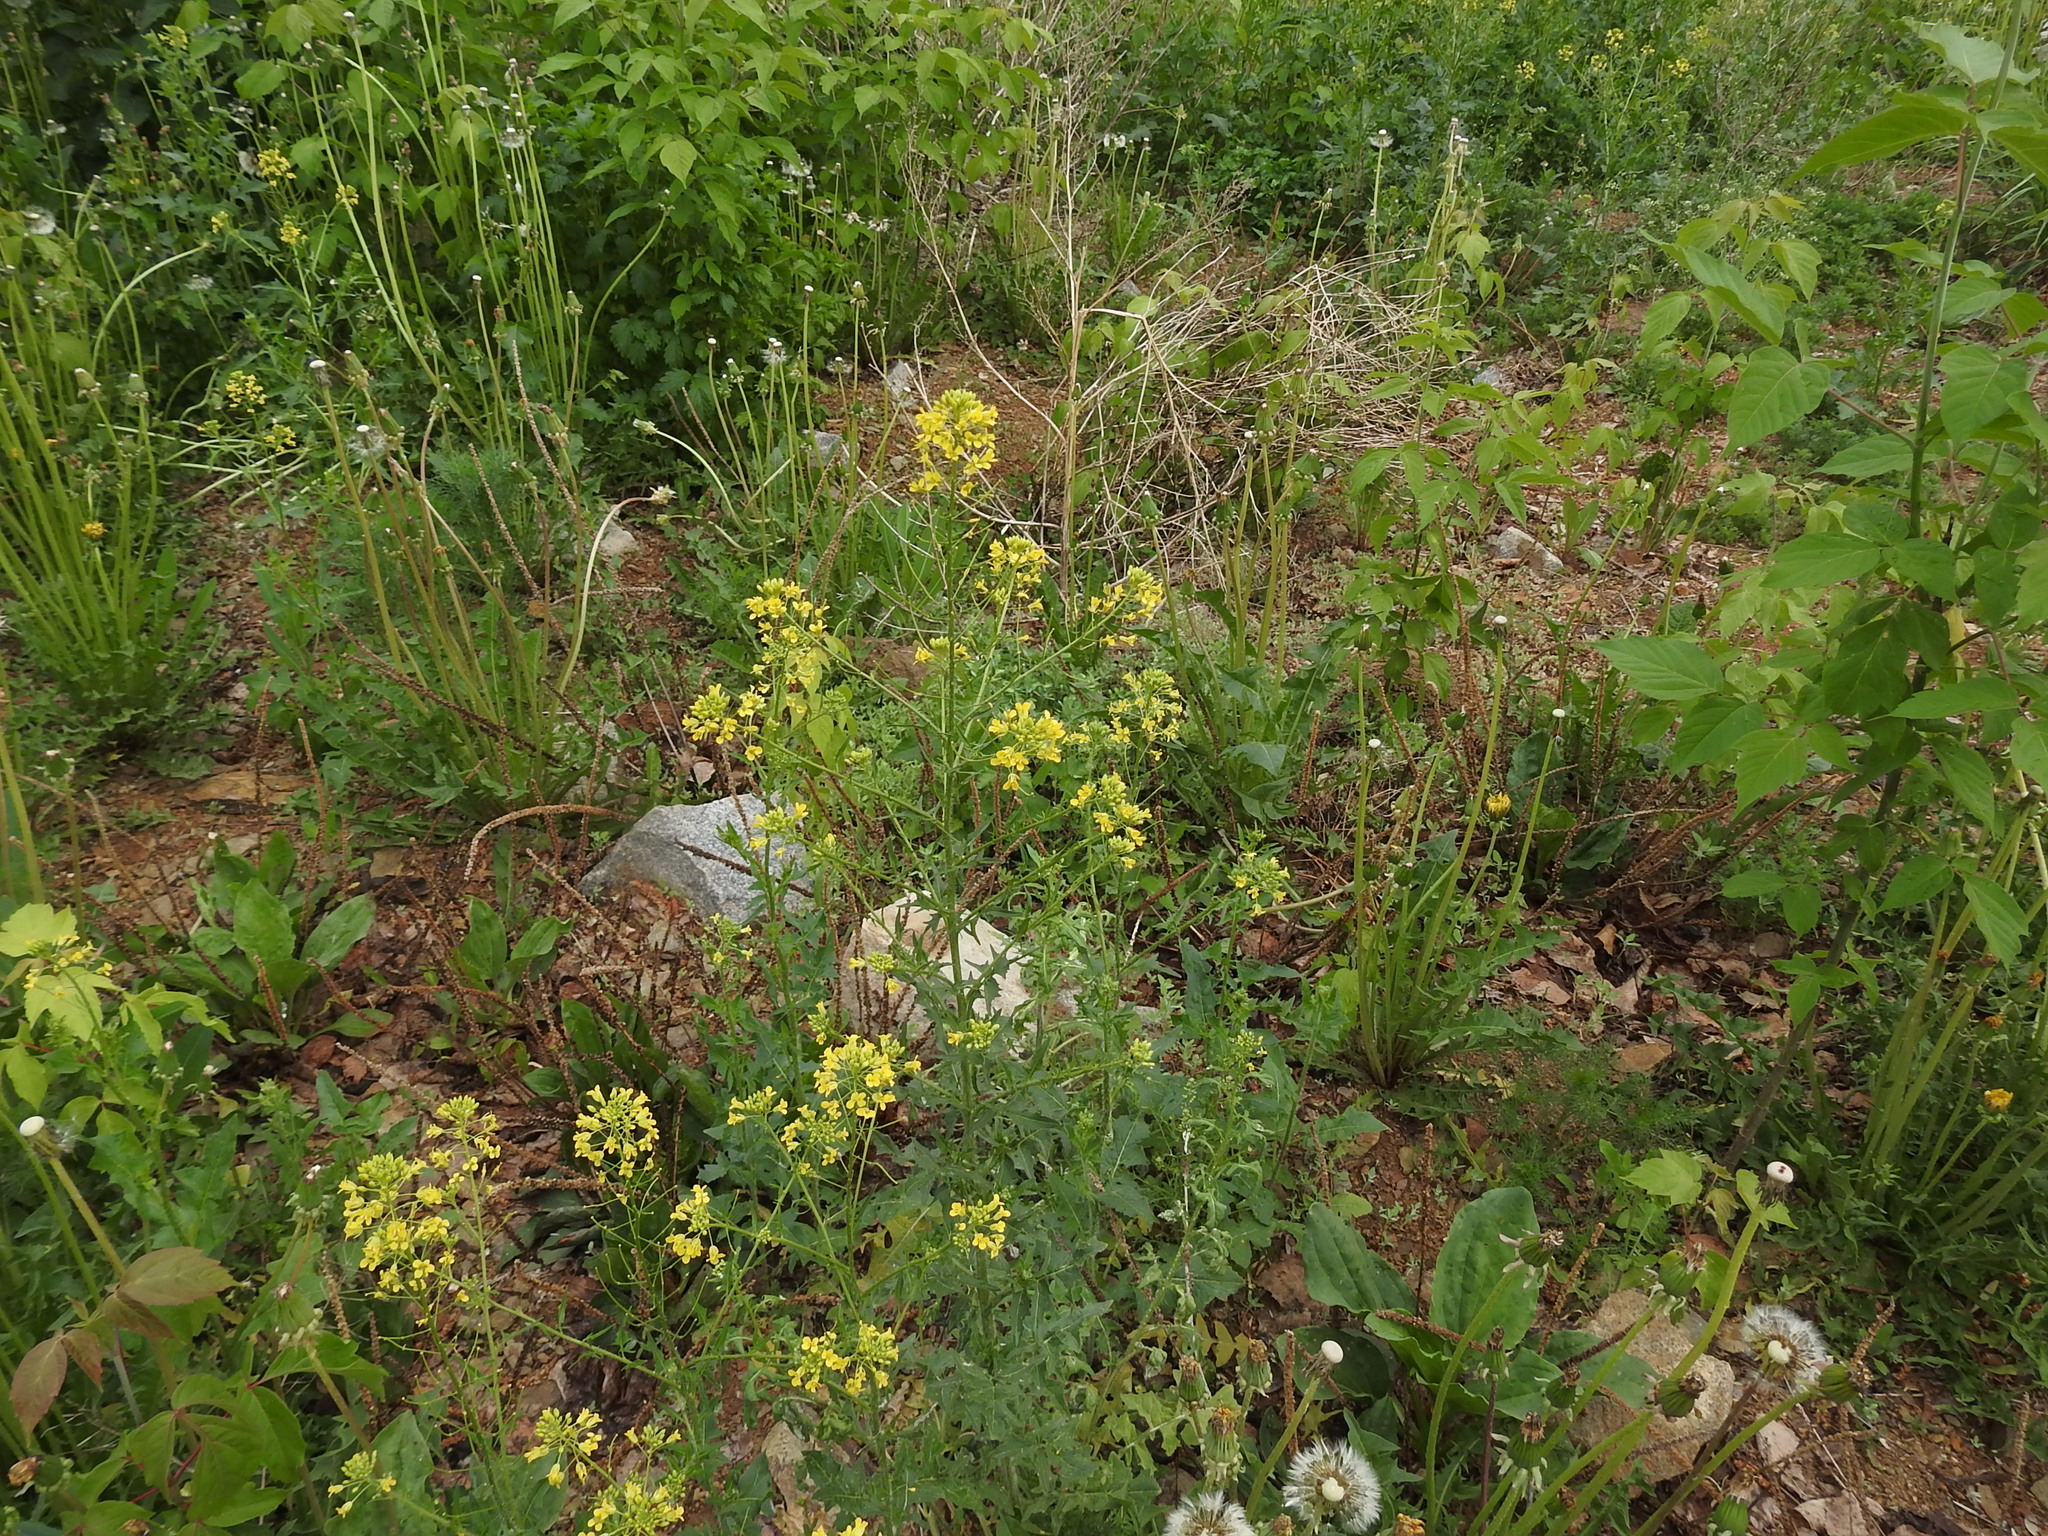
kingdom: Plantae
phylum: Tracheophyta
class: Magnoliopsida
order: Brassicales
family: Brassicaceae
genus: Sisymbrium
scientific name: Sisymbrium loeselii
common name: False london-rocket
